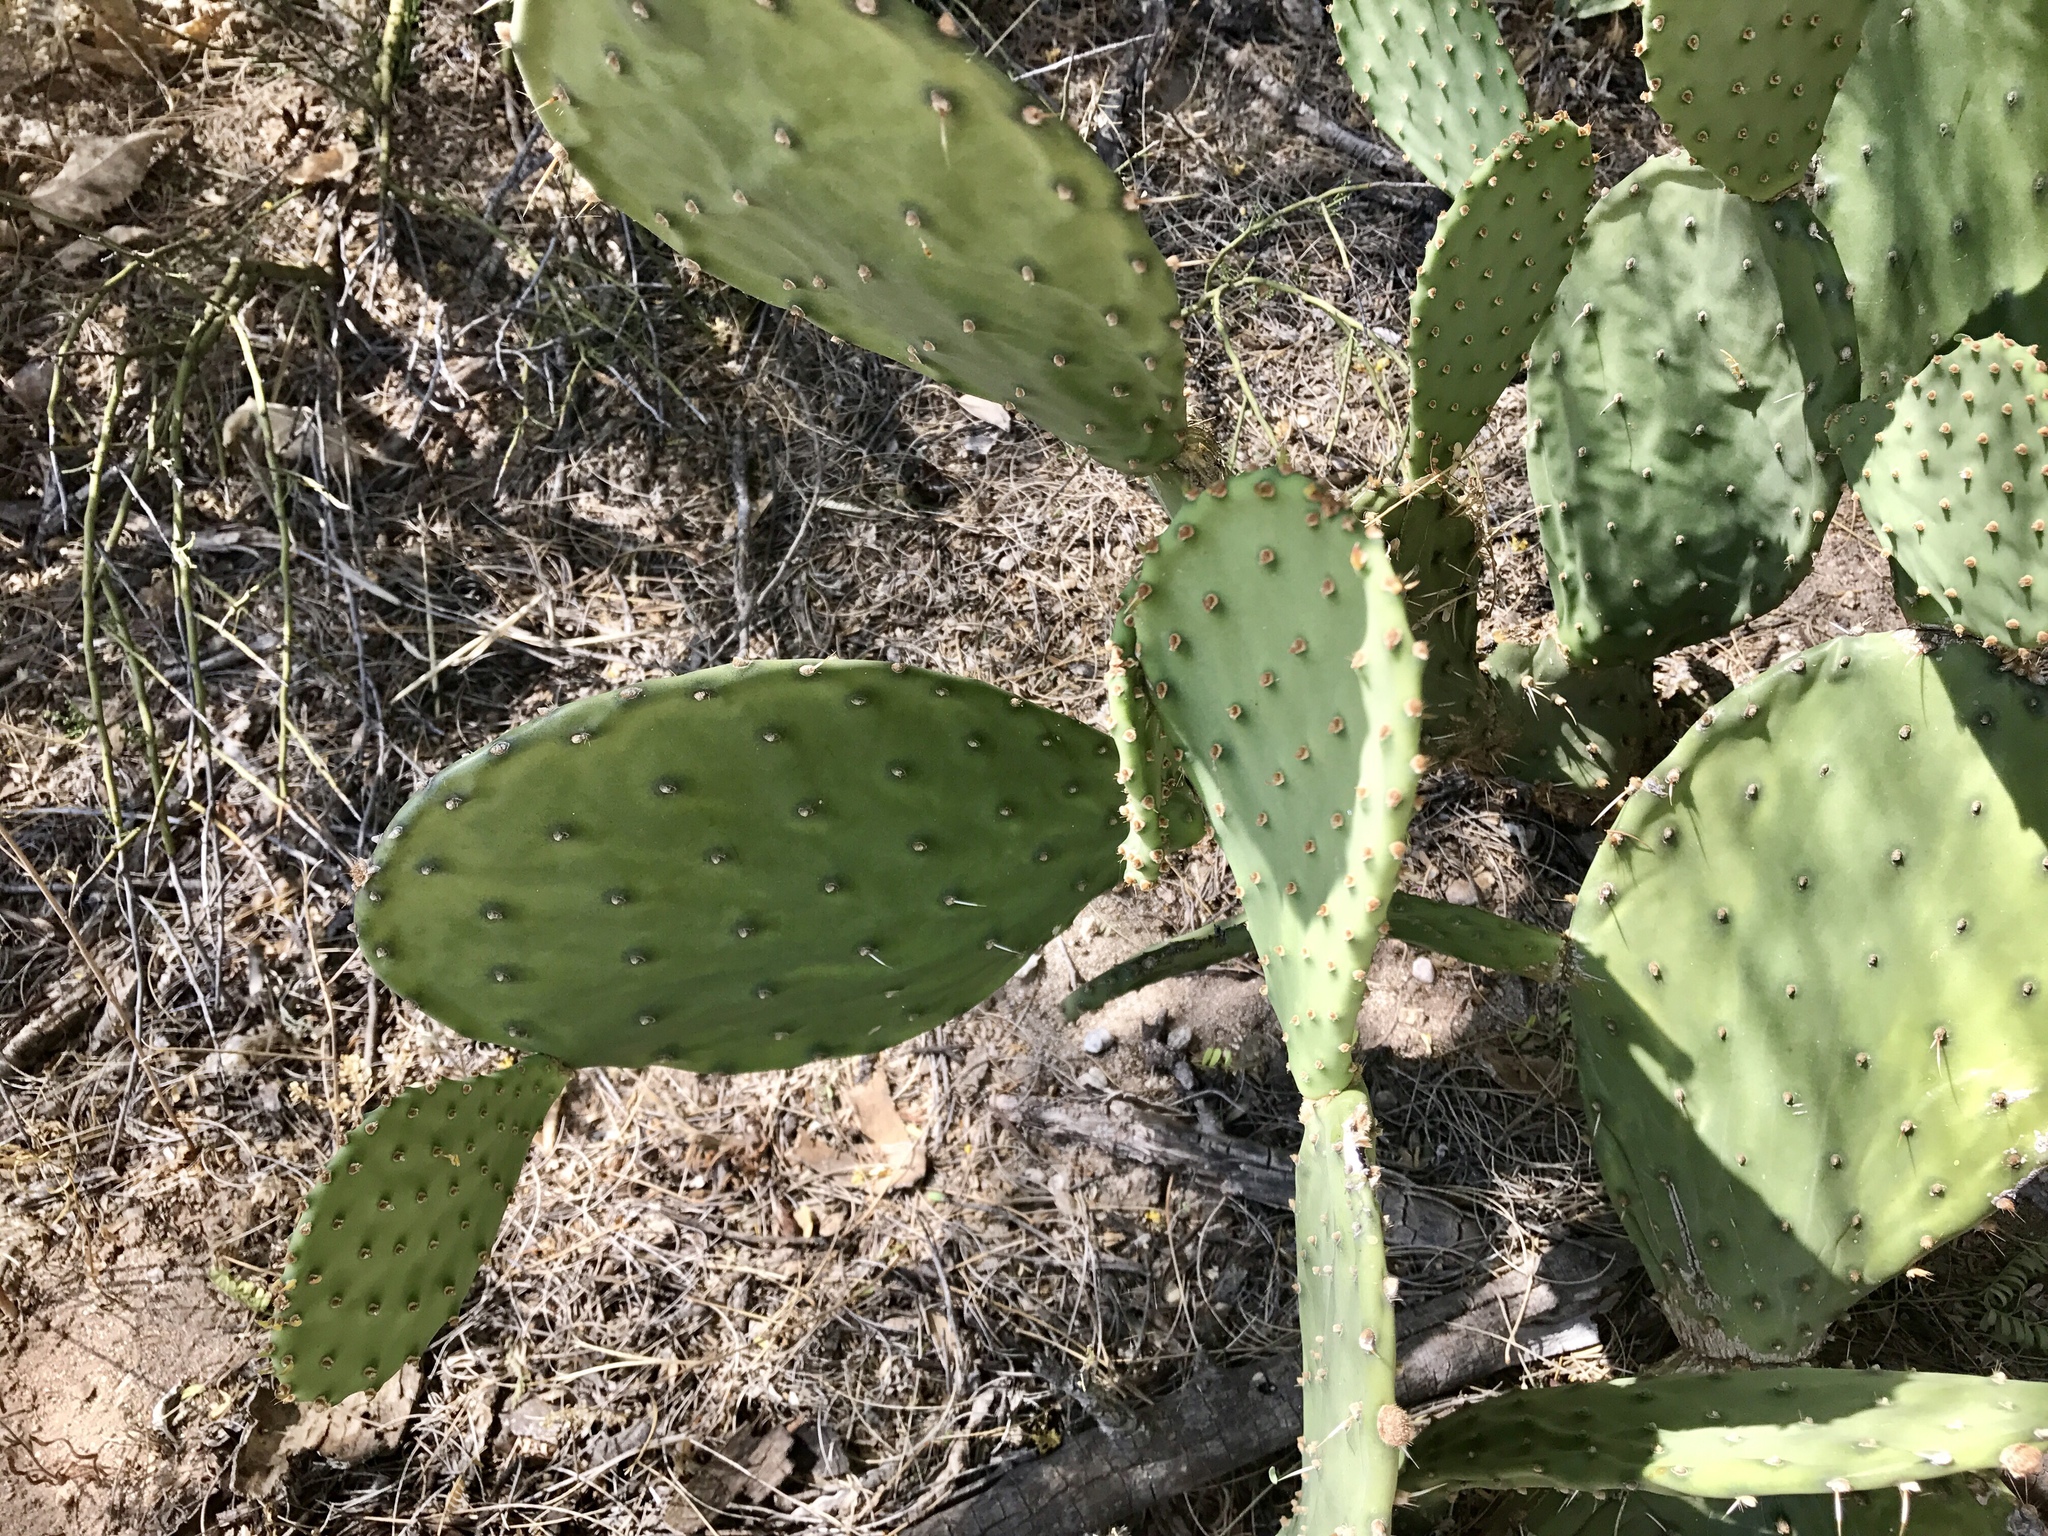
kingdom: Plantae
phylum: Tracheophyta
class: Magnoliopsida
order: Caryophyllales
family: Cactaceae
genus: Opuntia
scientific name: Opuntia engelmannii
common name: Cactus-apple
